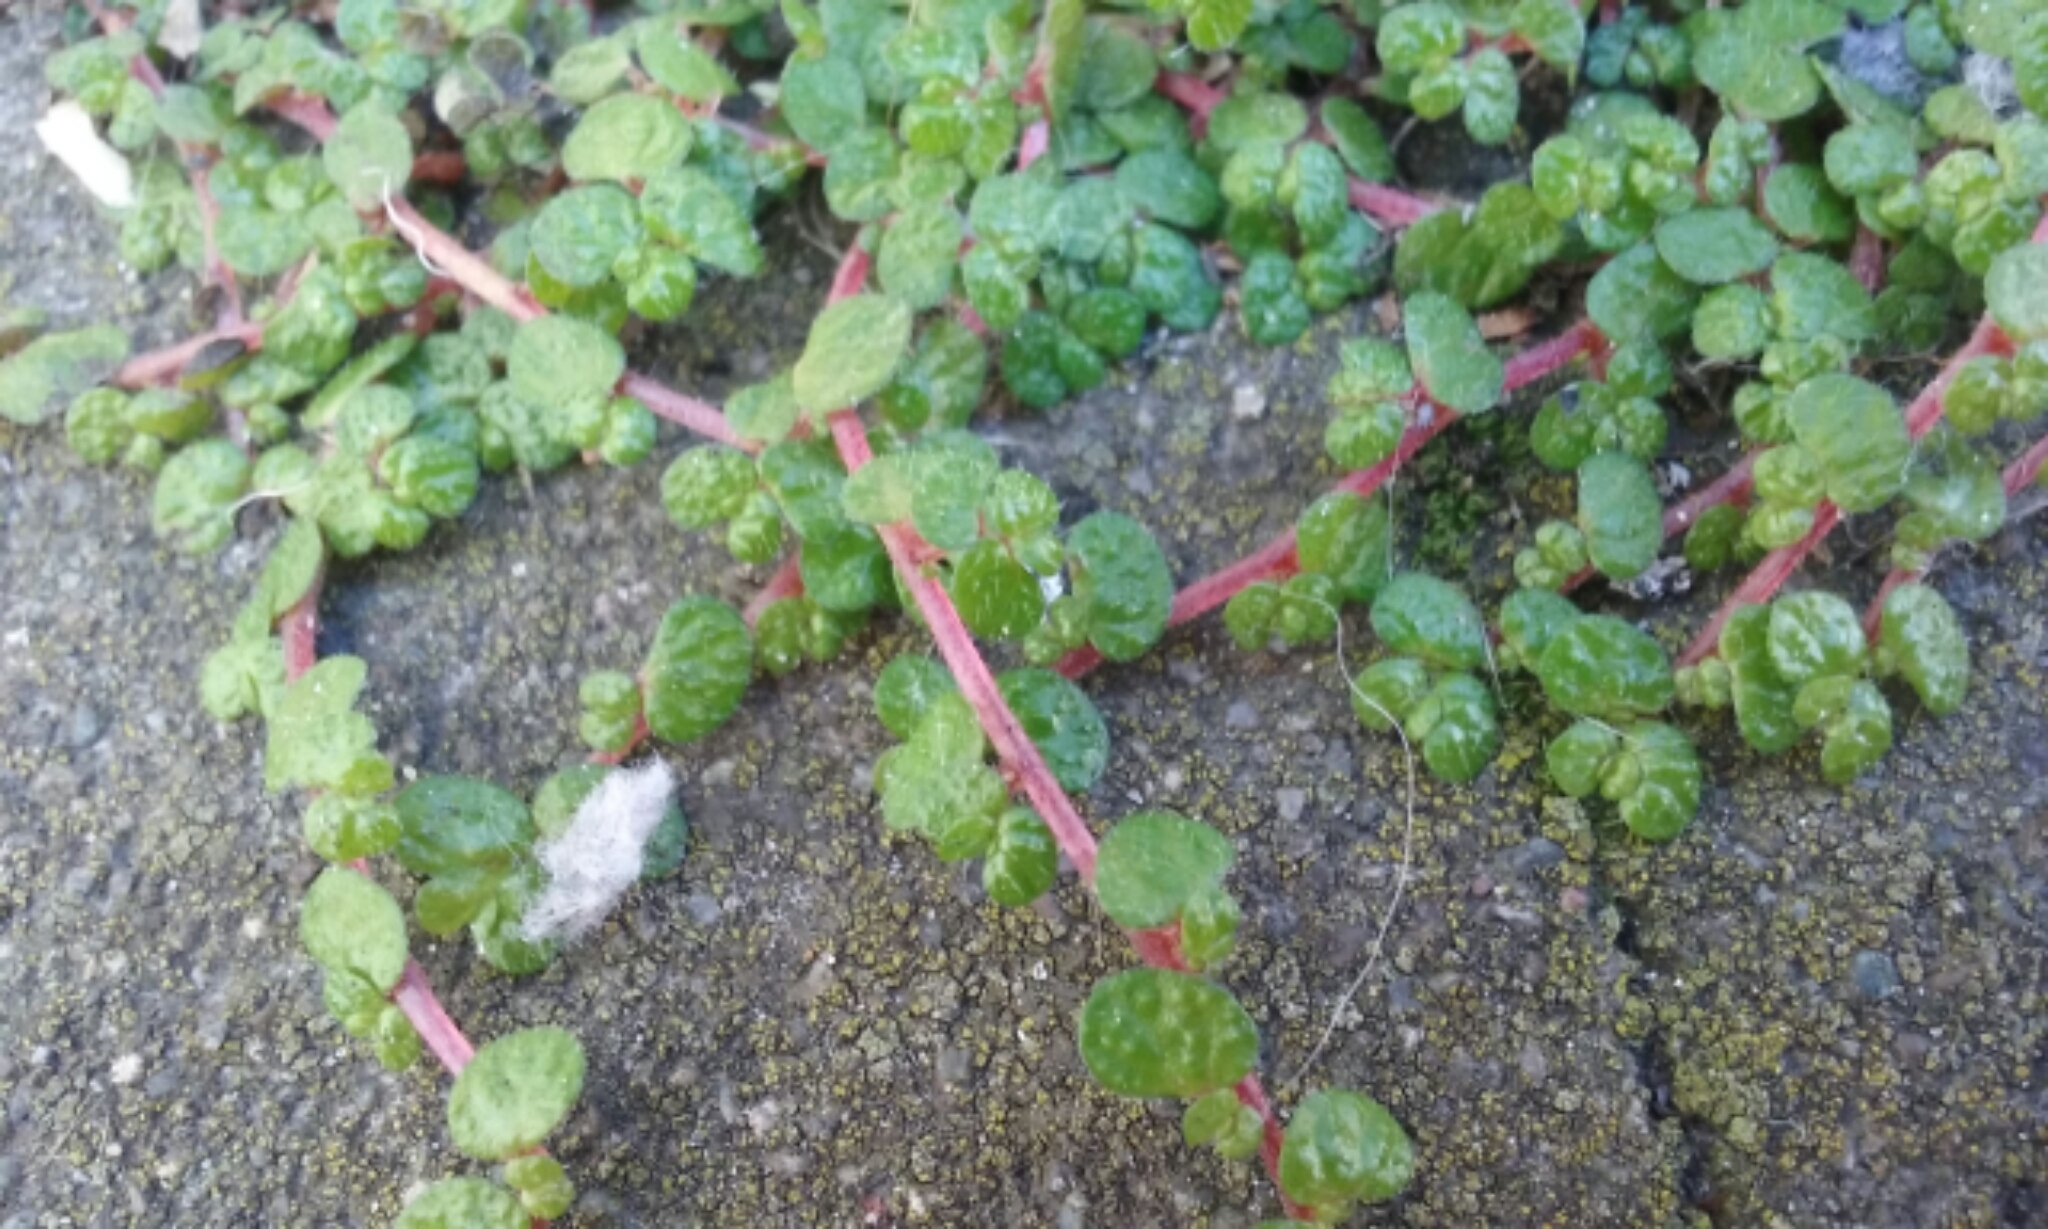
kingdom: Plantae
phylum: Tracheophyta
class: Magnoliopsida
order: Rosales
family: Urticaceae
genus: Soleirolia
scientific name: Soleirolia soleirolii
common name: Mind-your-own-business
